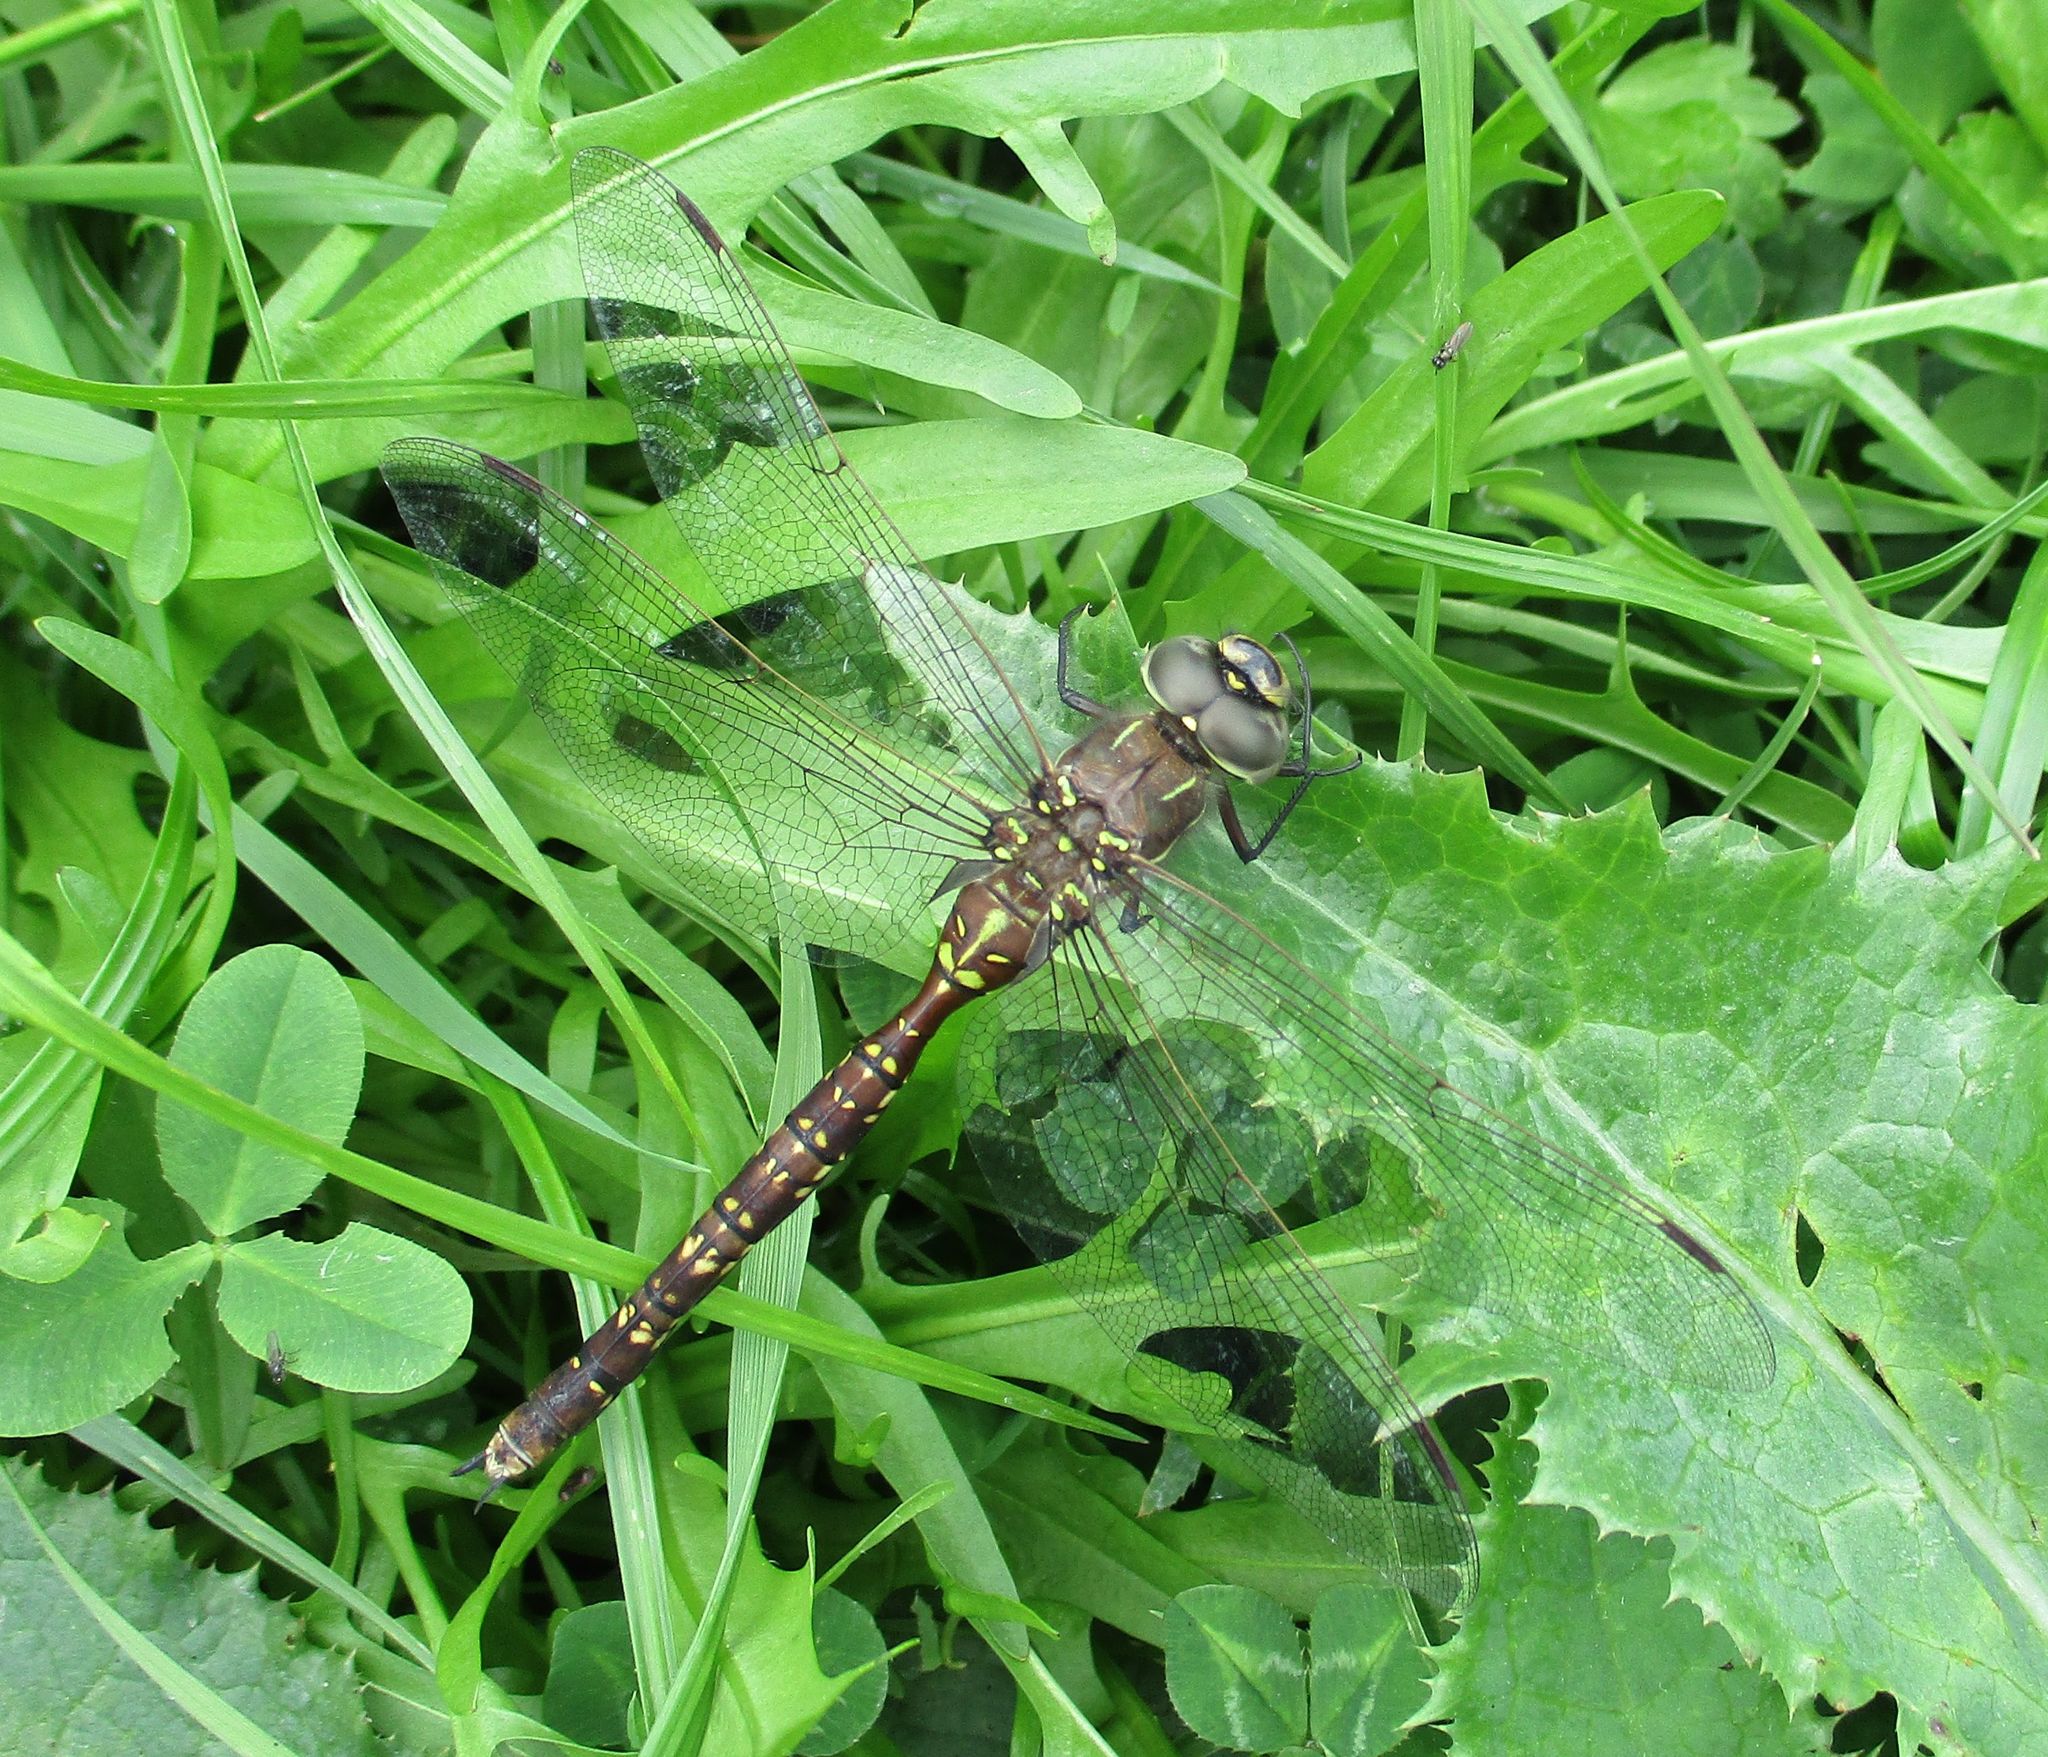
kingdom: Animalia
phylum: Arthropoda
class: Insecta
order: Odonata
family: Aeshnidae
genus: Aeshna
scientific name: Aeshna brevistyla
